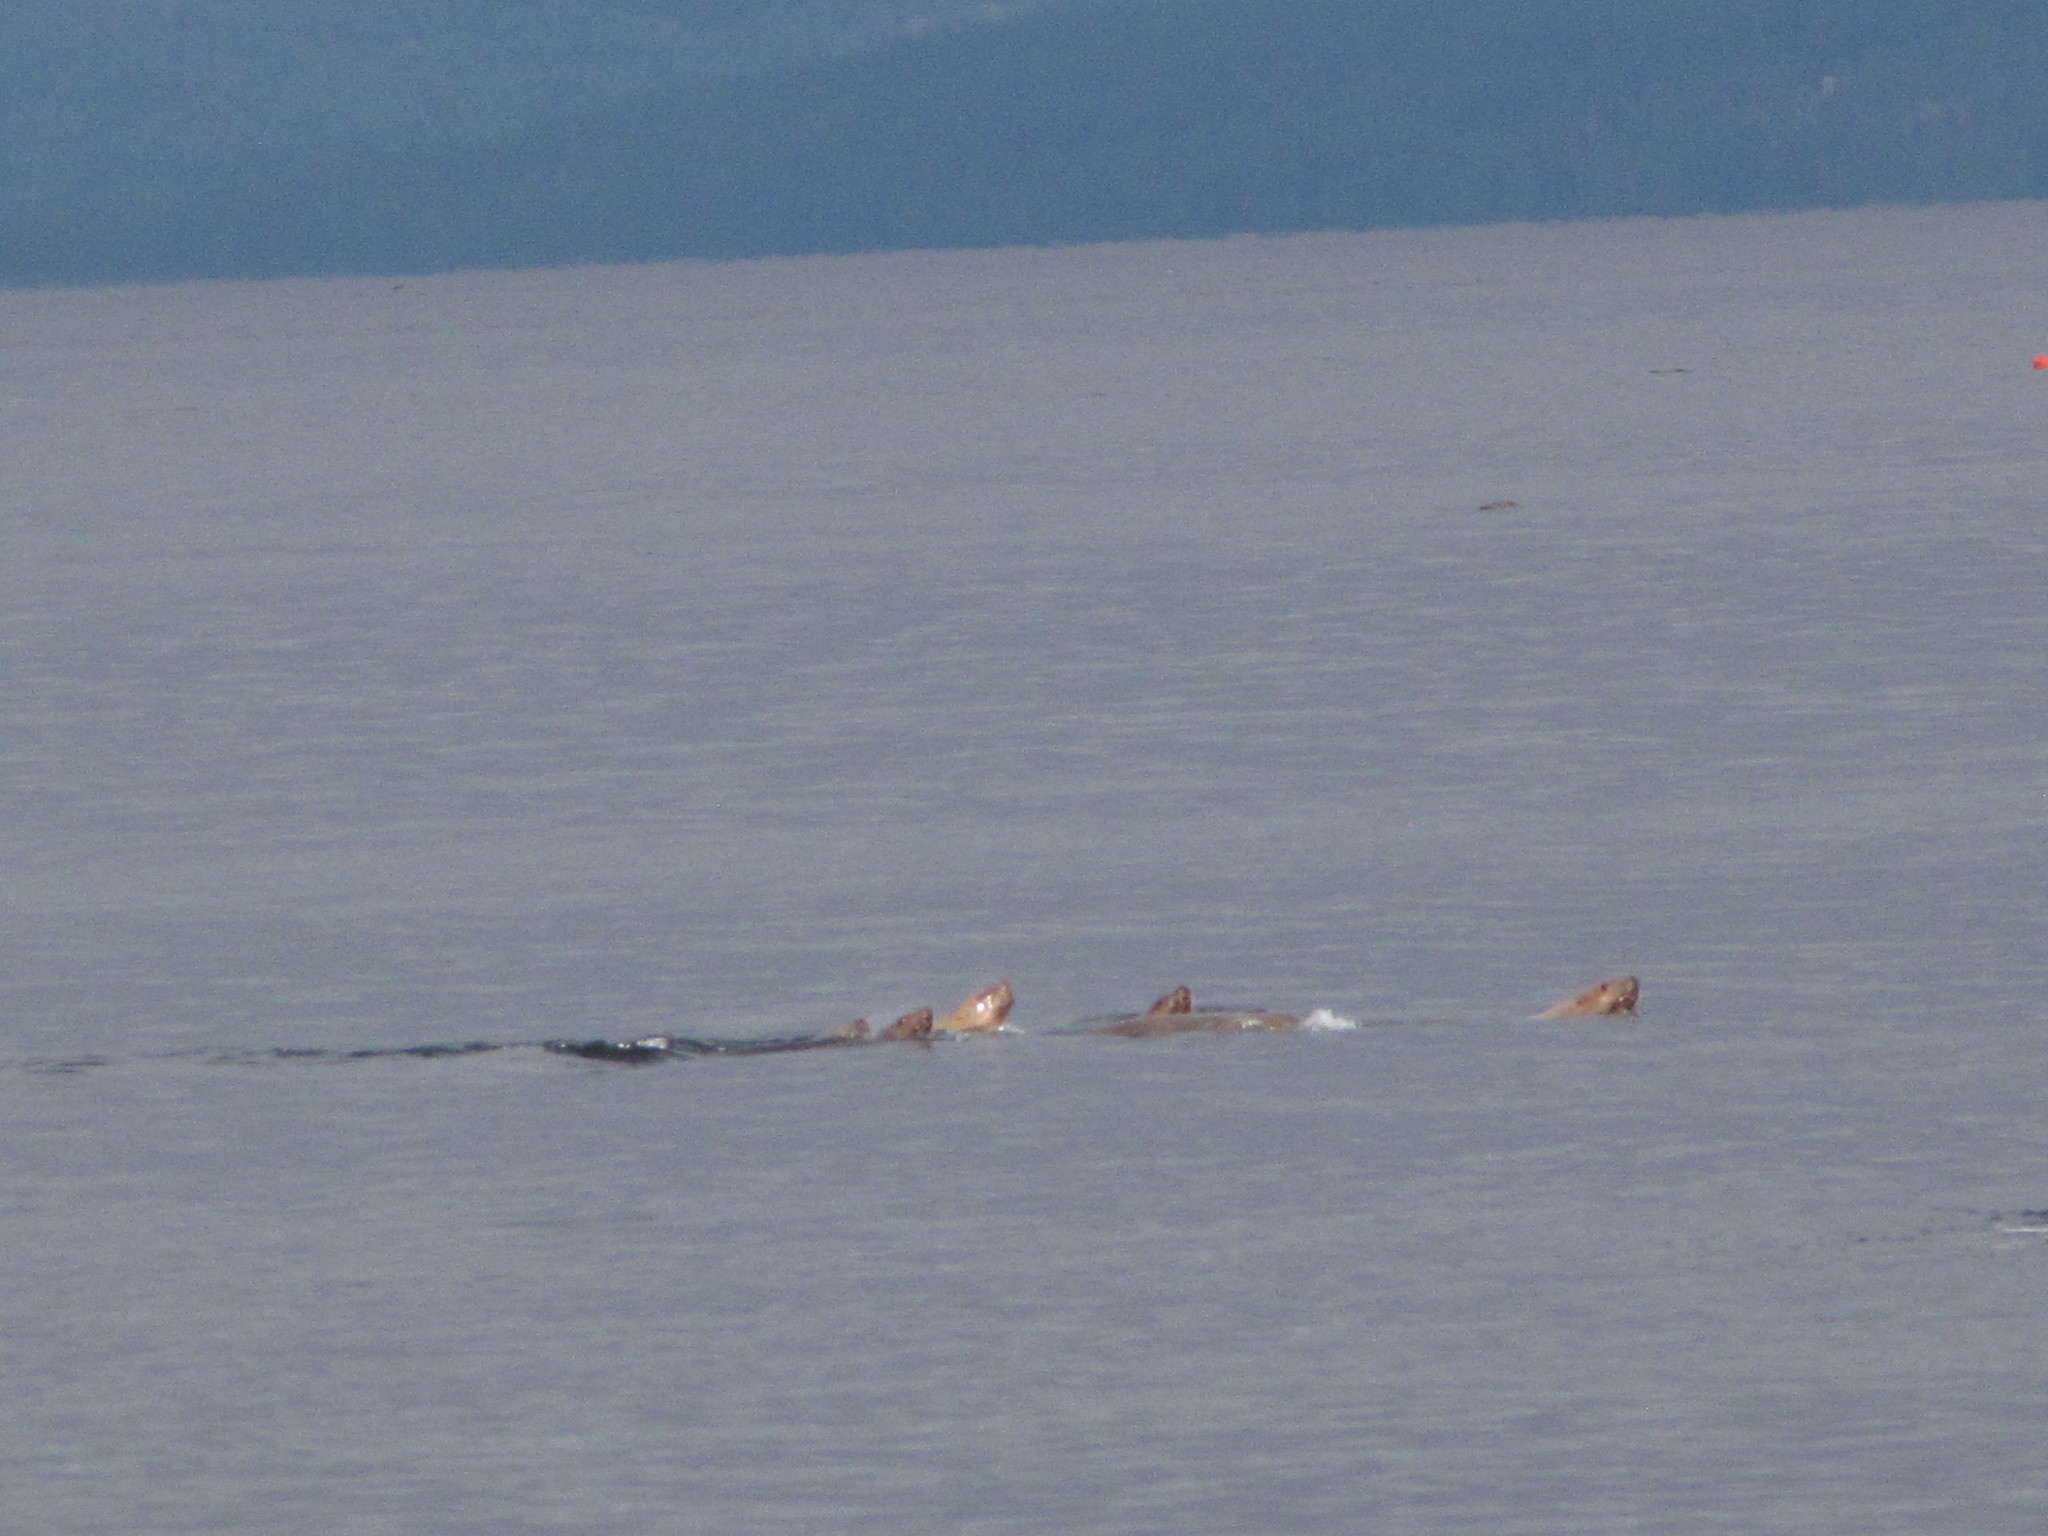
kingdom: Animalia
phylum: Chordata
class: Mammalia
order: Carnivora
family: Otariidae
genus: Eumetopias
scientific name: Eumetopias jubatus
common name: Steller sea lion
